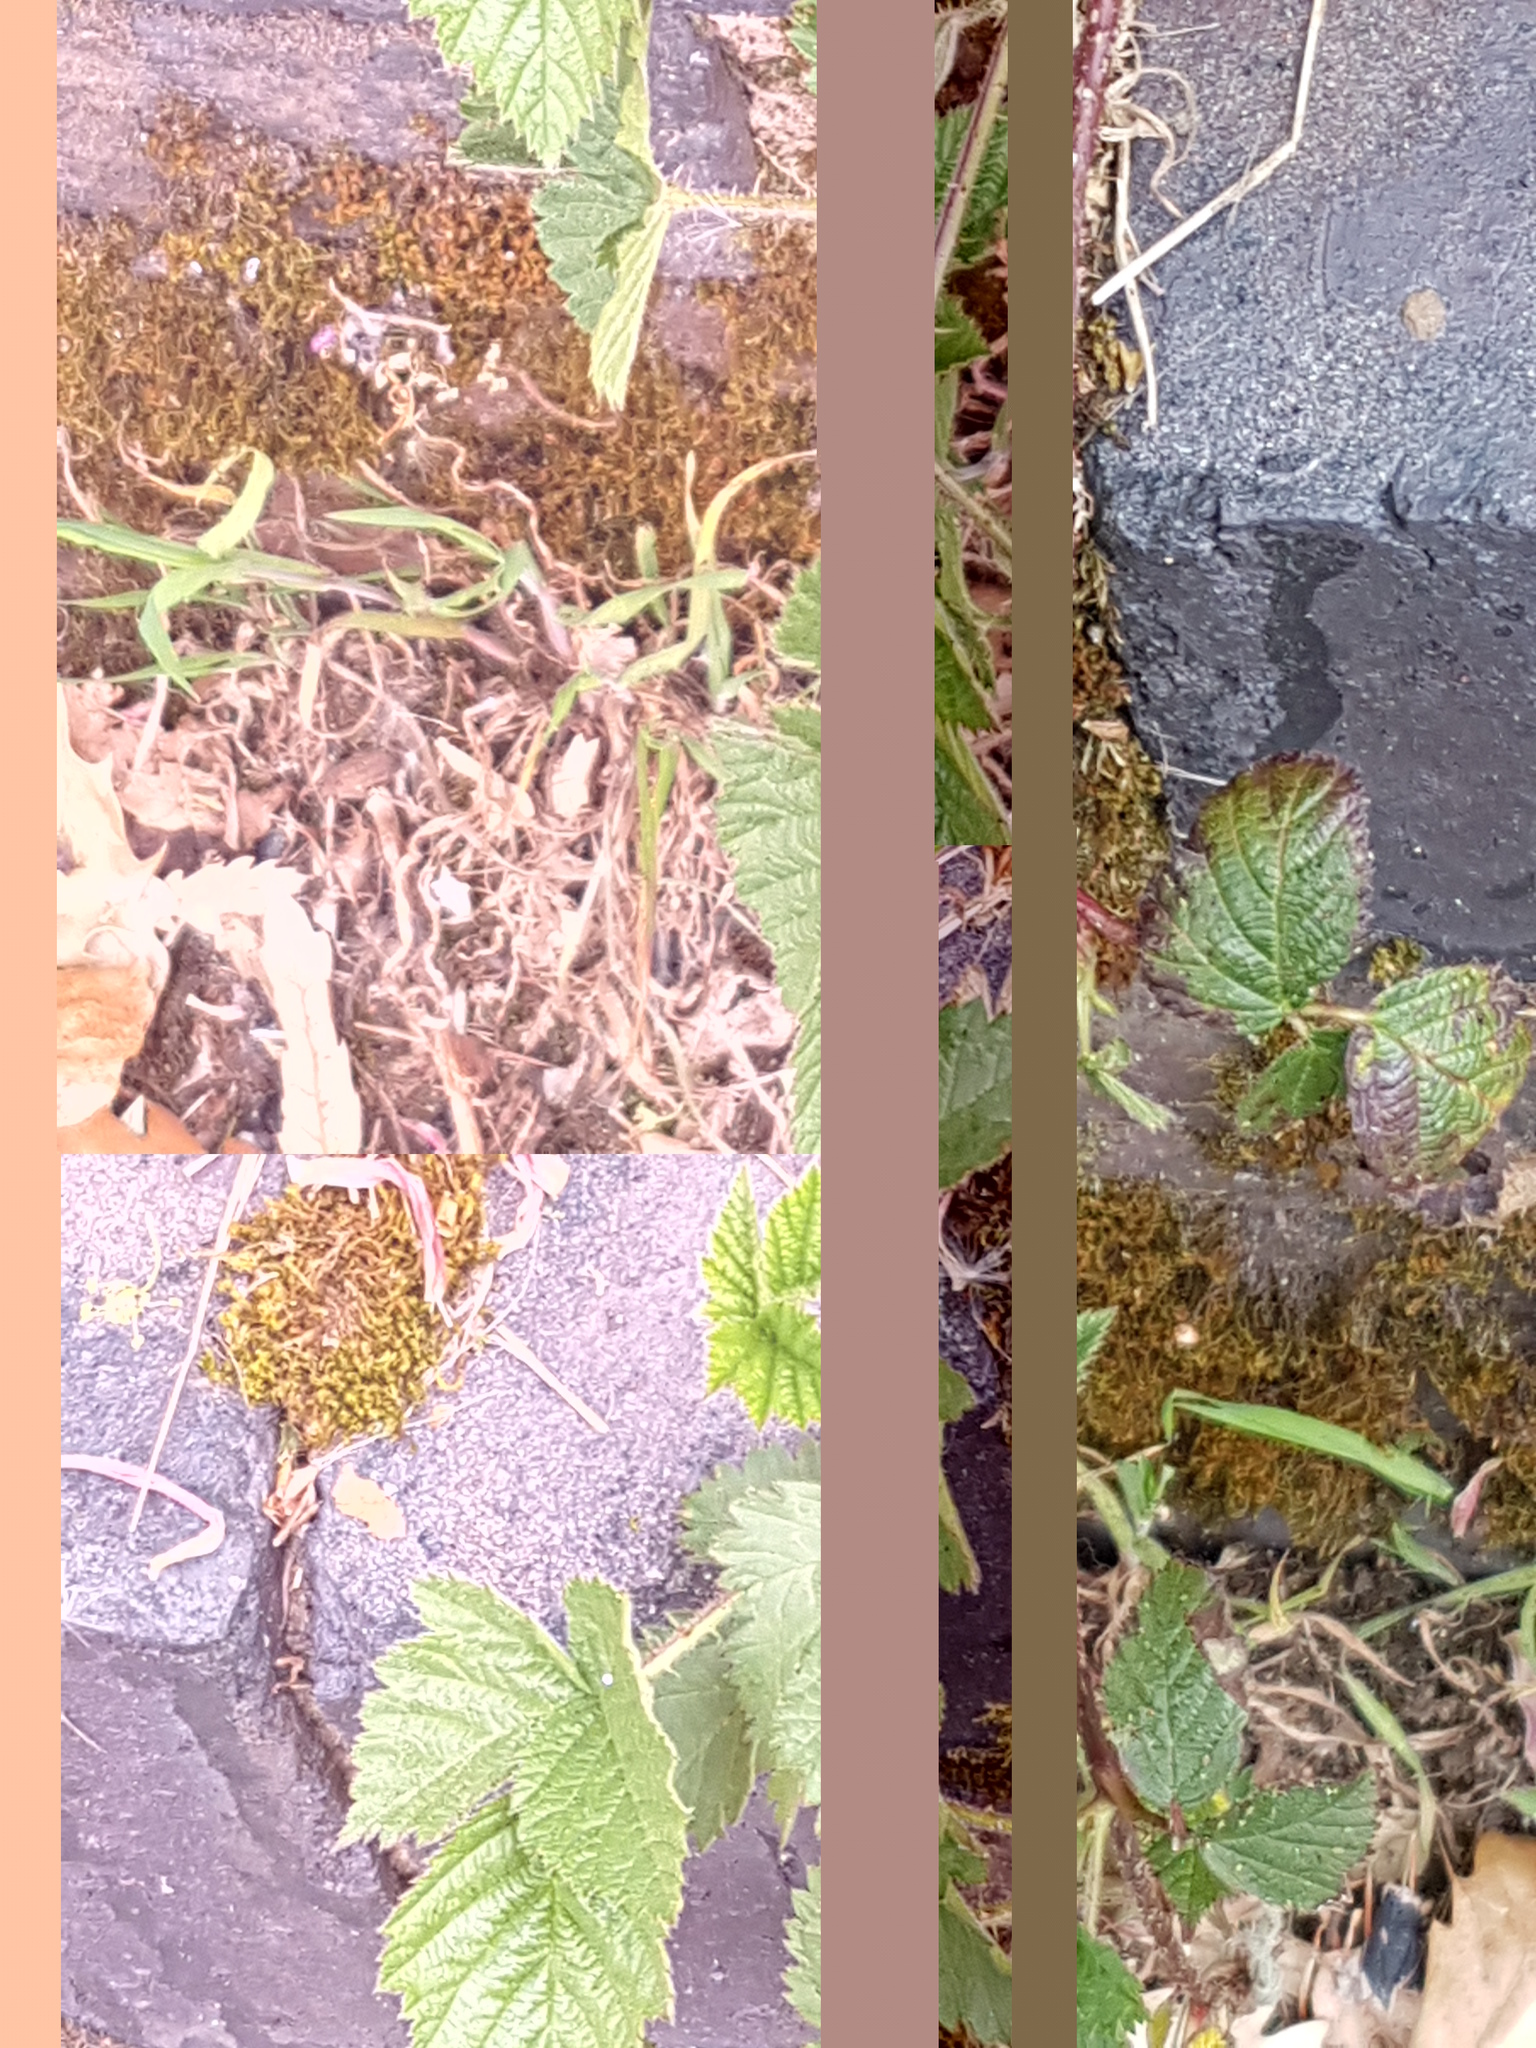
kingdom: Plantae
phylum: Tracheophyta
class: Magnoliopsida
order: Rosales
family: Rosaceae
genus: Rubus
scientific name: Rubus
